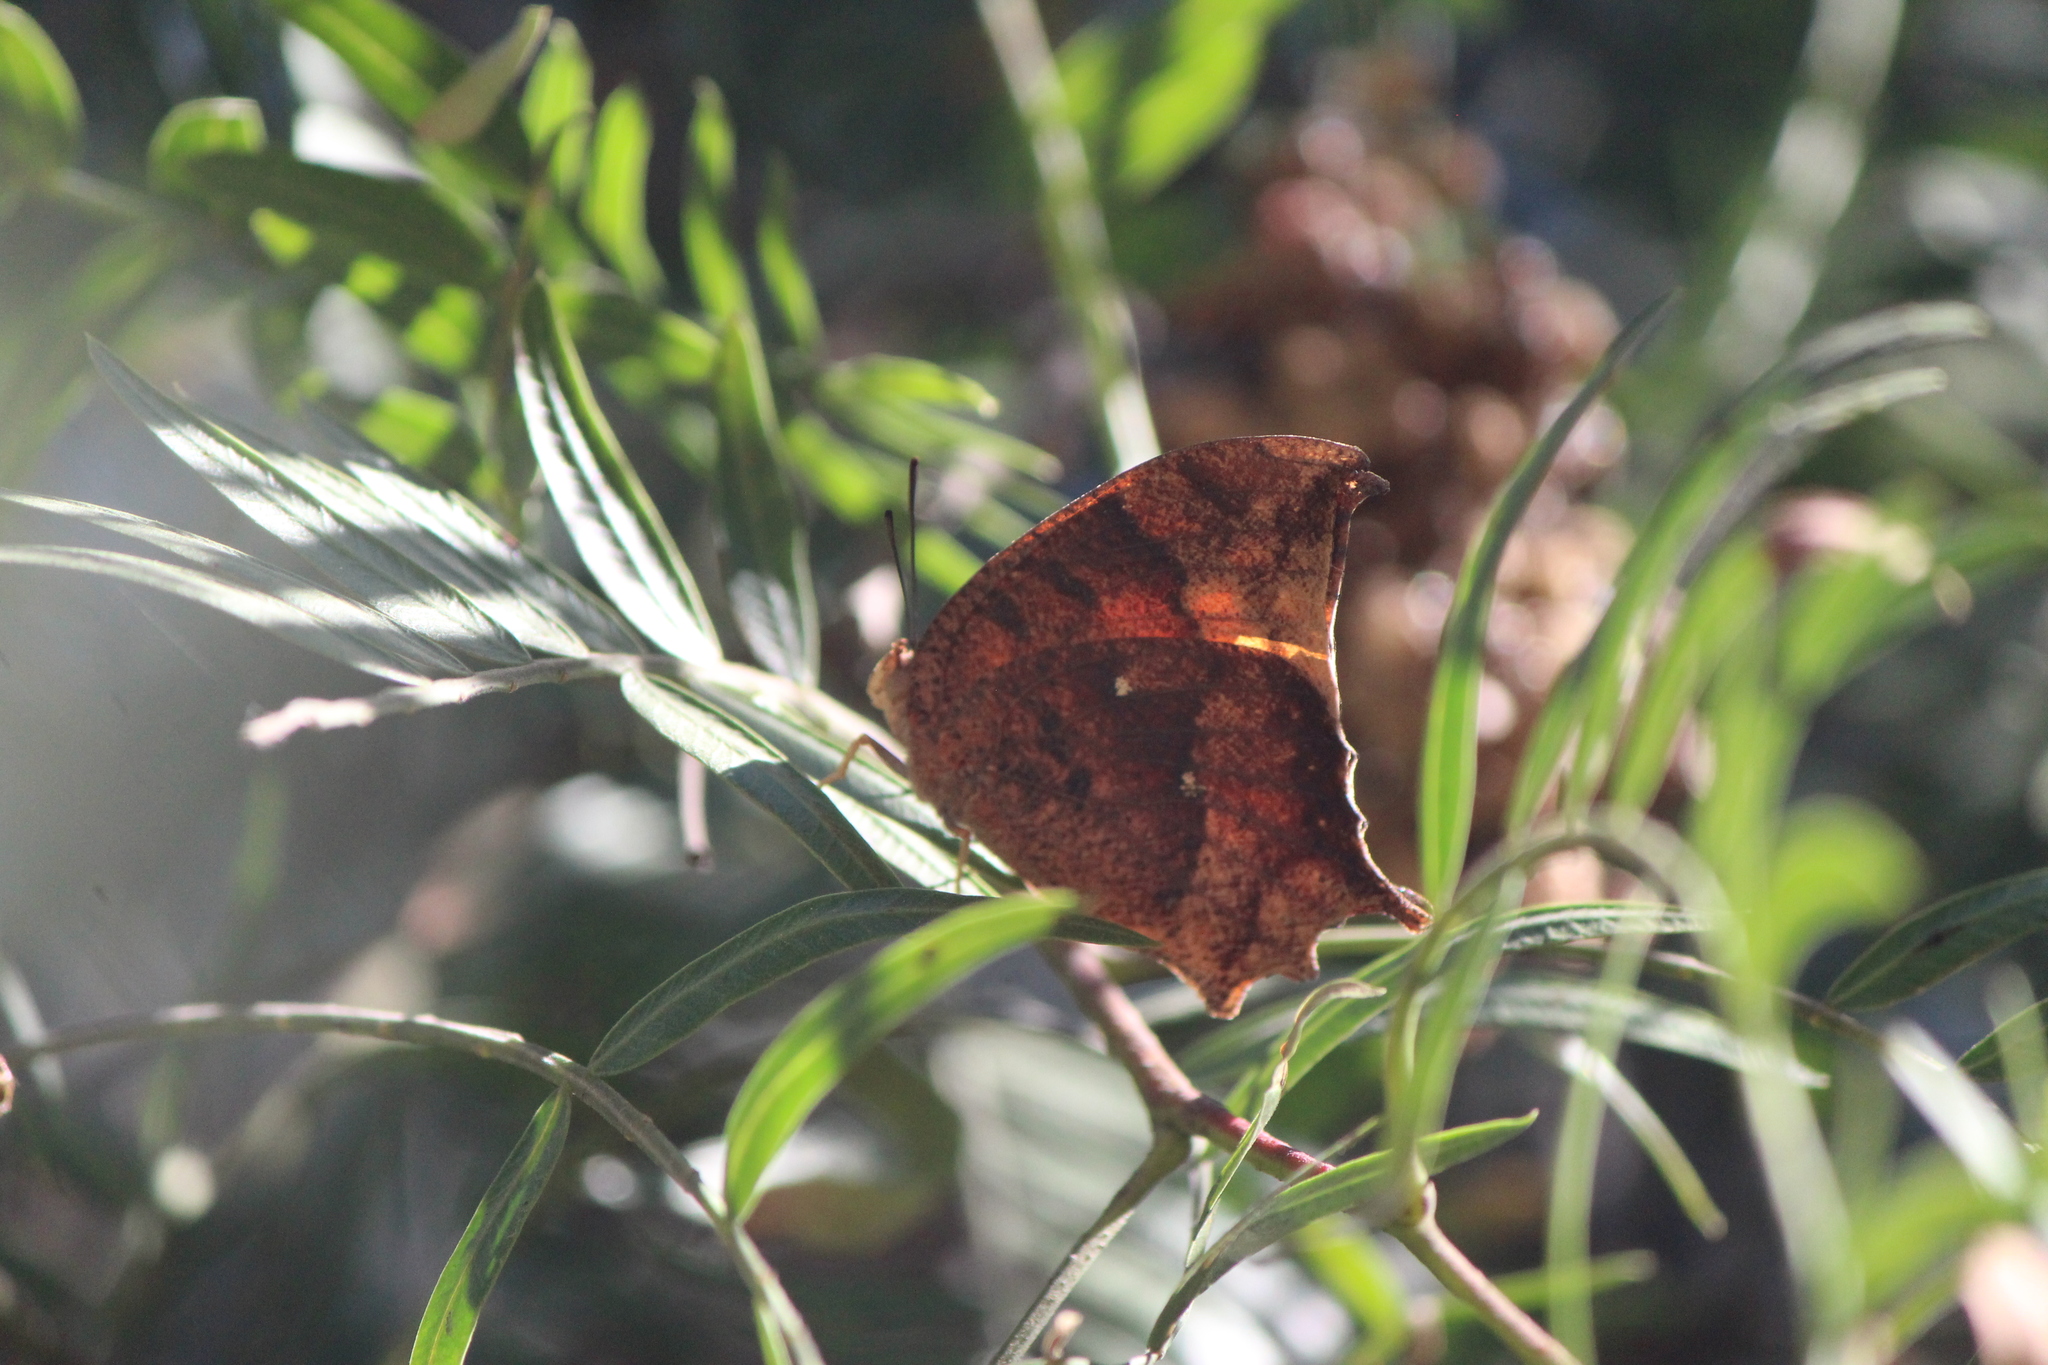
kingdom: Animalia
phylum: Arthropoda
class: Insecta
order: Lepidoptera
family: Nymphalidae
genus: Anaea
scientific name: Anaea aidea
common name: Tropical leafwing
